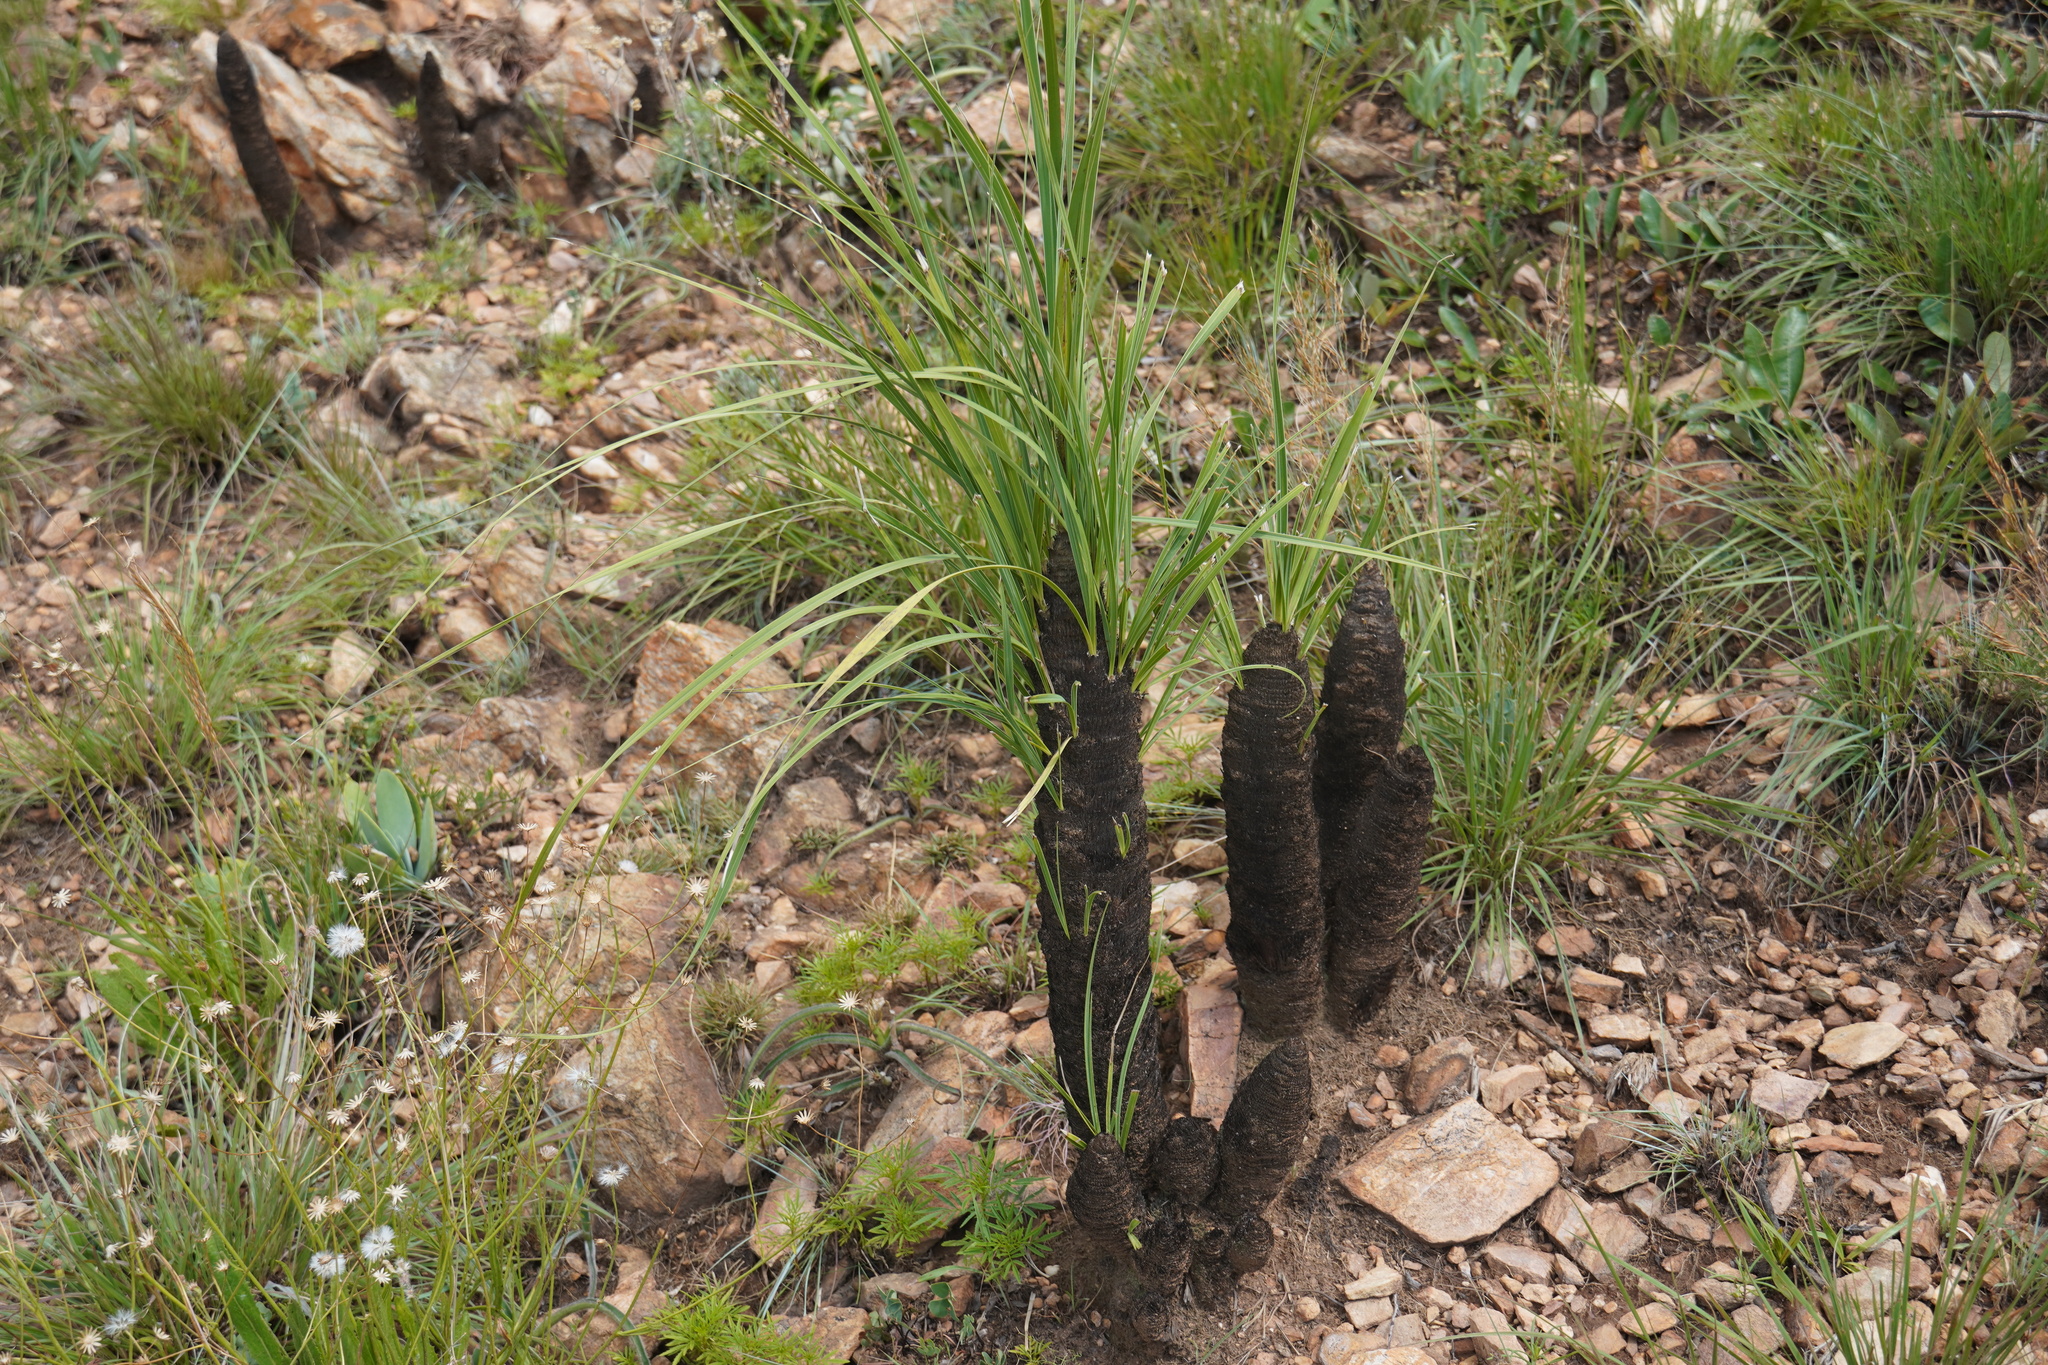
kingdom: Plantae
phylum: Tracheophyta
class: Liliopsida
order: Pandanales
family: Velloziaceae
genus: Xerophyta
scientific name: Xerophyta retinervis
